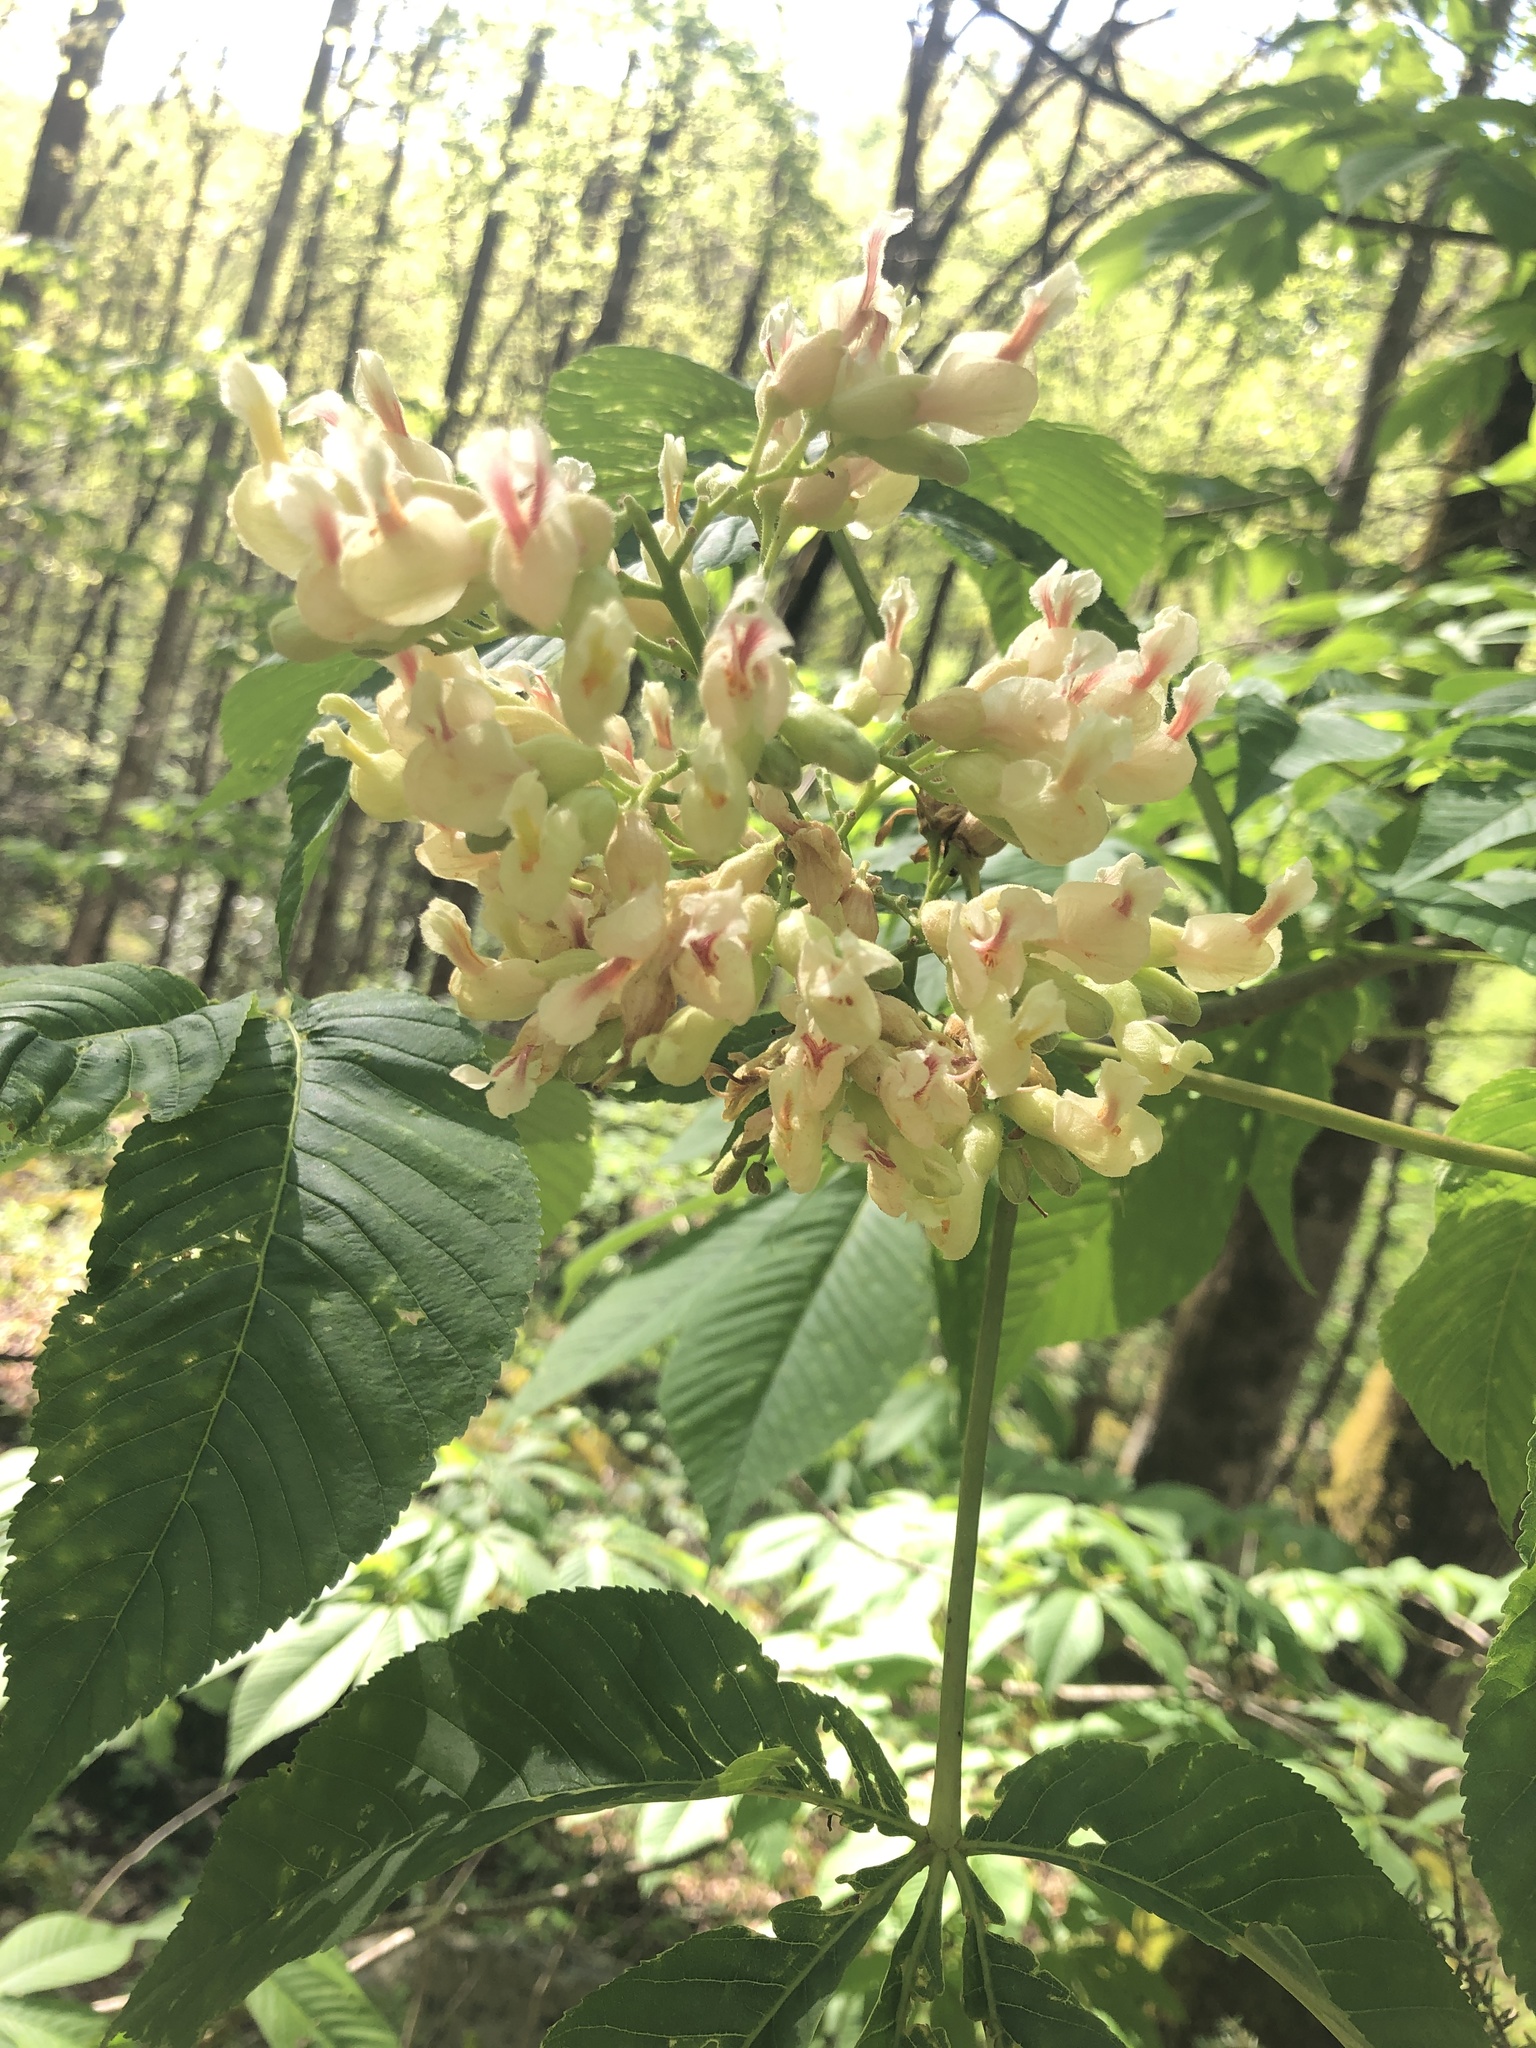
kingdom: Plantae
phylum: Tracheophyta
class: Magnoliopsida
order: Sapindales
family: Sapindaceae
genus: Aesculus
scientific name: Aesculus flava
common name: Yellow buckeye
